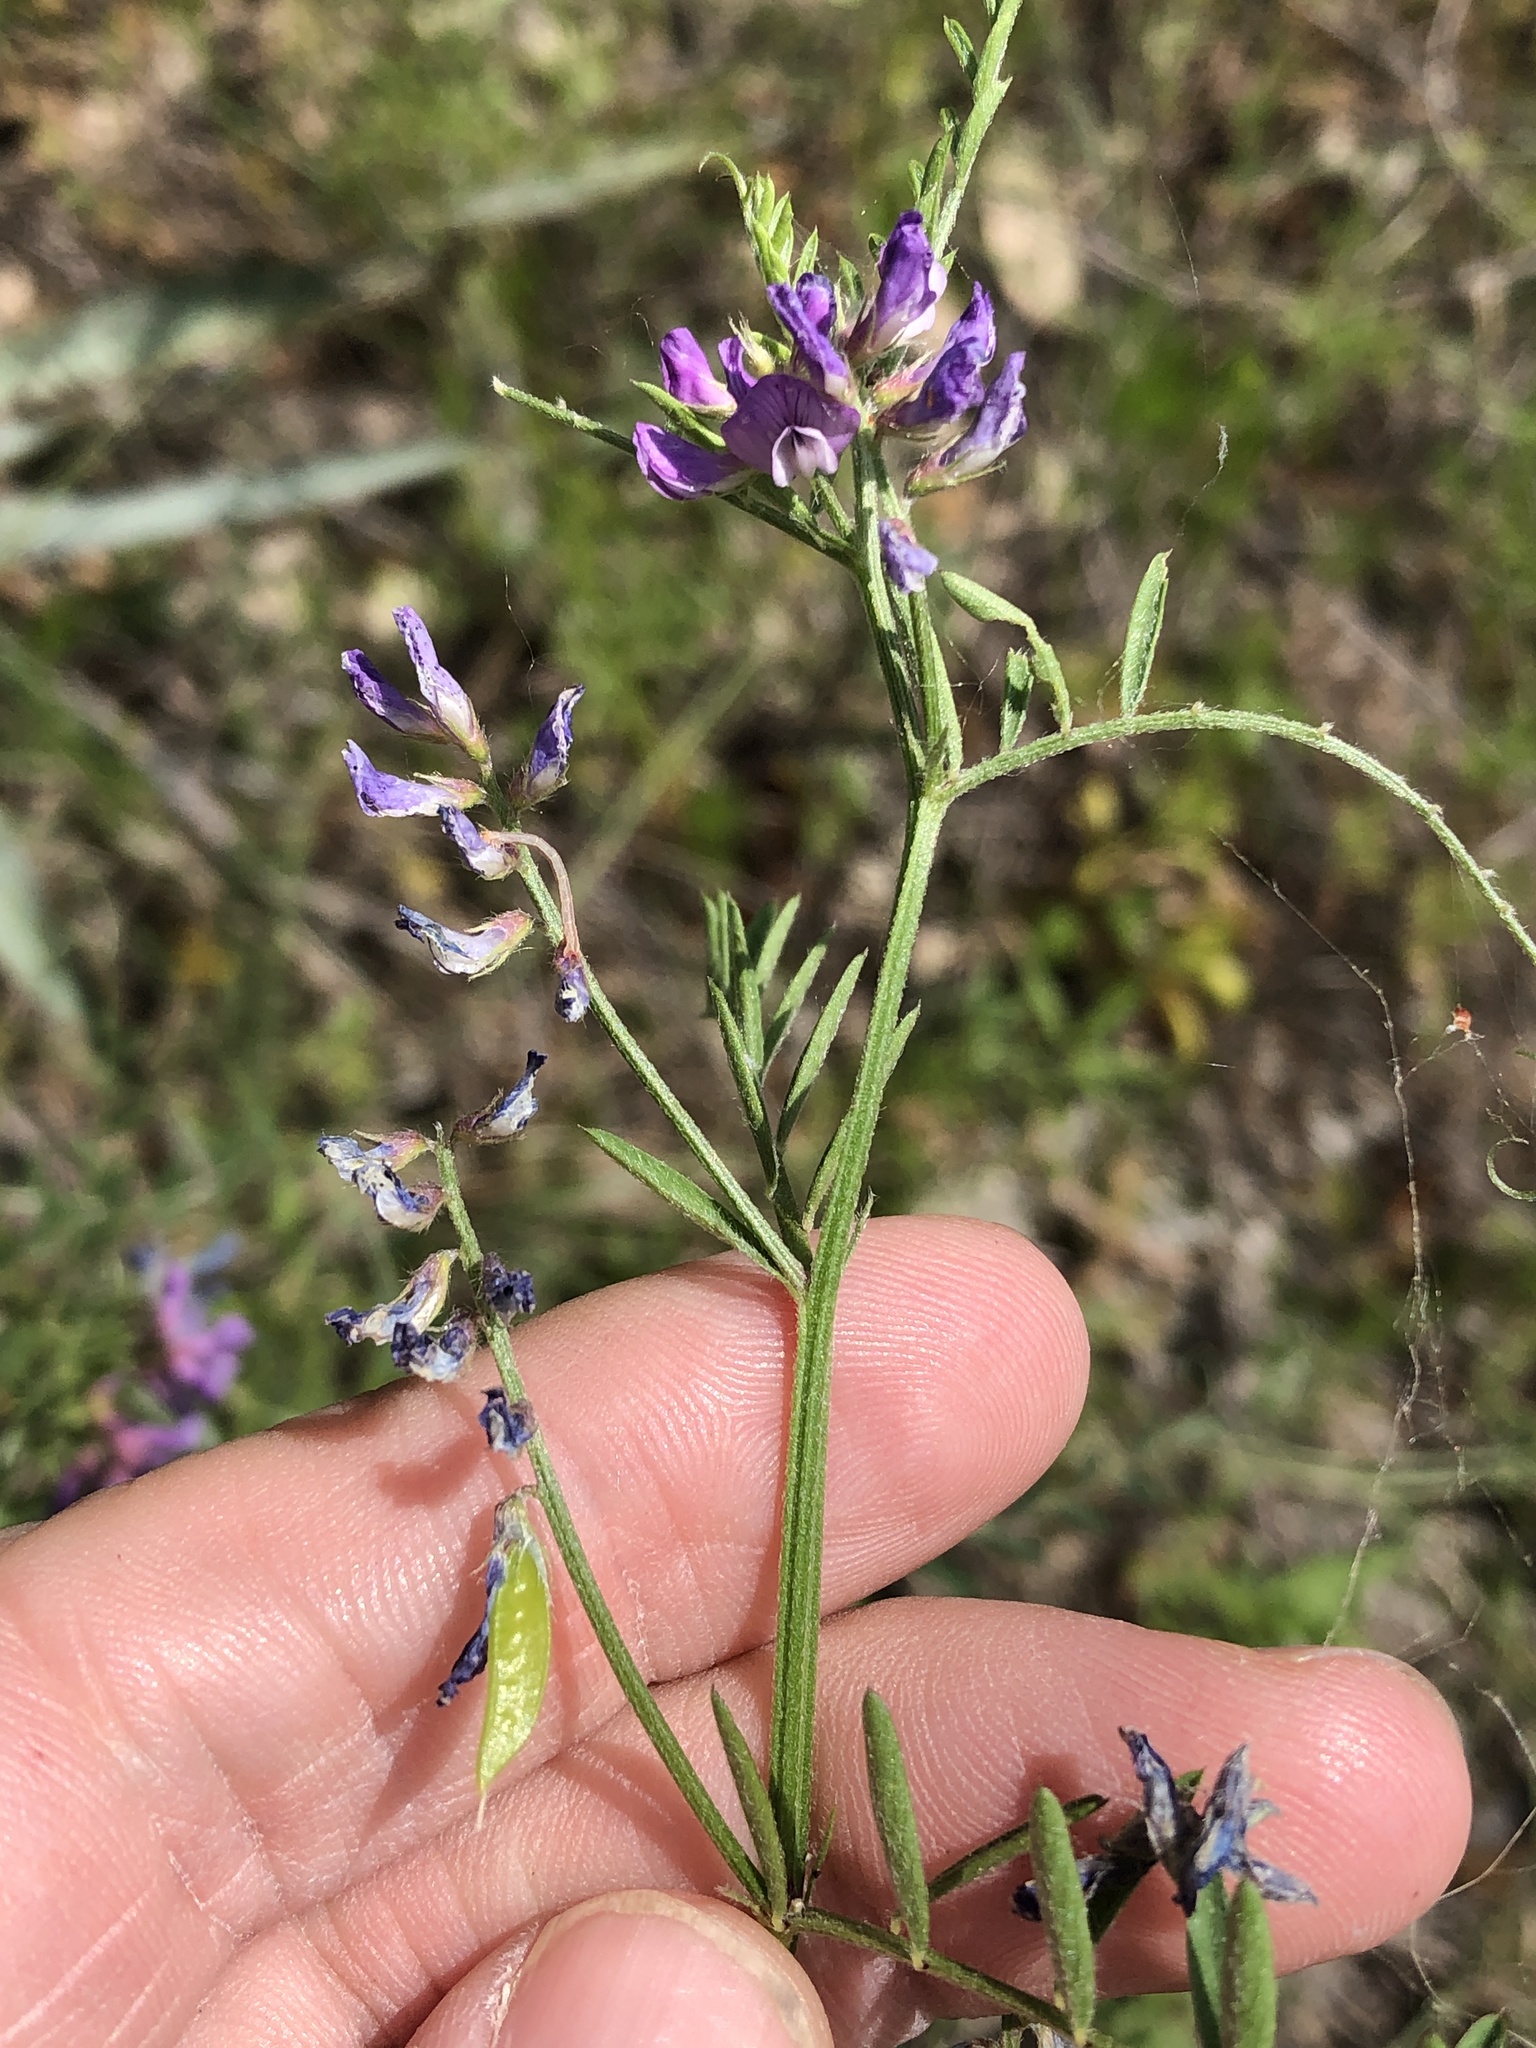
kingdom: Plantae
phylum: Tracheophyta
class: Magnoliopsida
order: Fabales
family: Fabaceae
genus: Vicia
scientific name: Vicia villosa
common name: Fodder vetch
